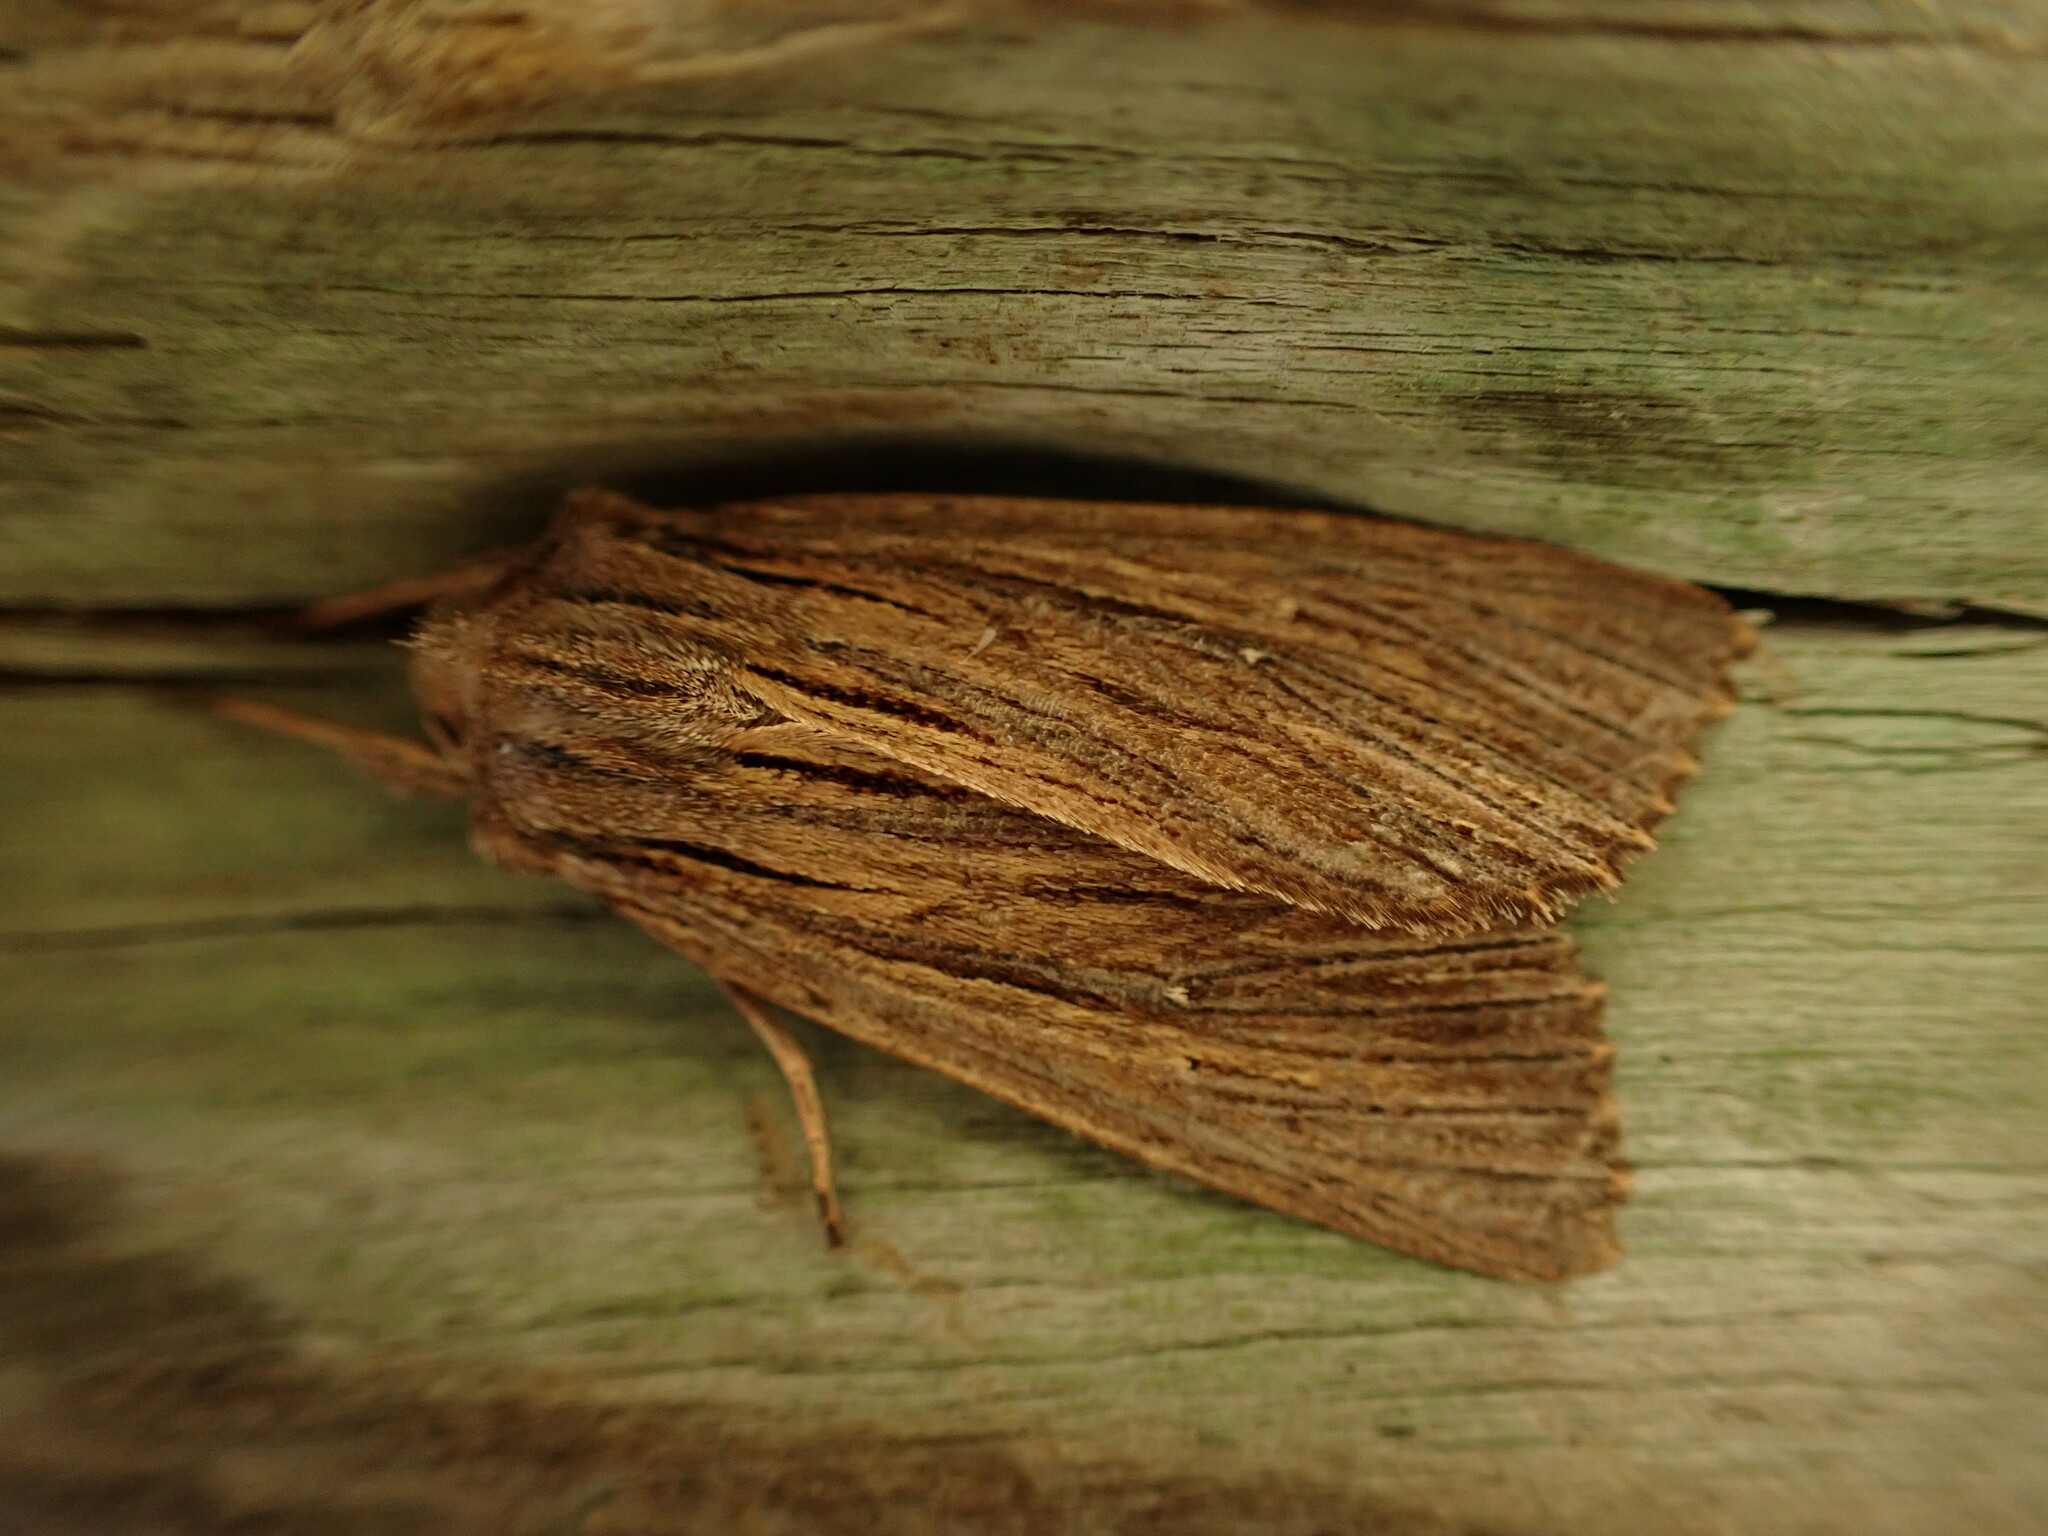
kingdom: Animalia
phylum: Arthropoda
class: Insecta
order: Lepidoptera
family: Noctuidae
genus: Ichneutica
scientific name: Ichneutica
